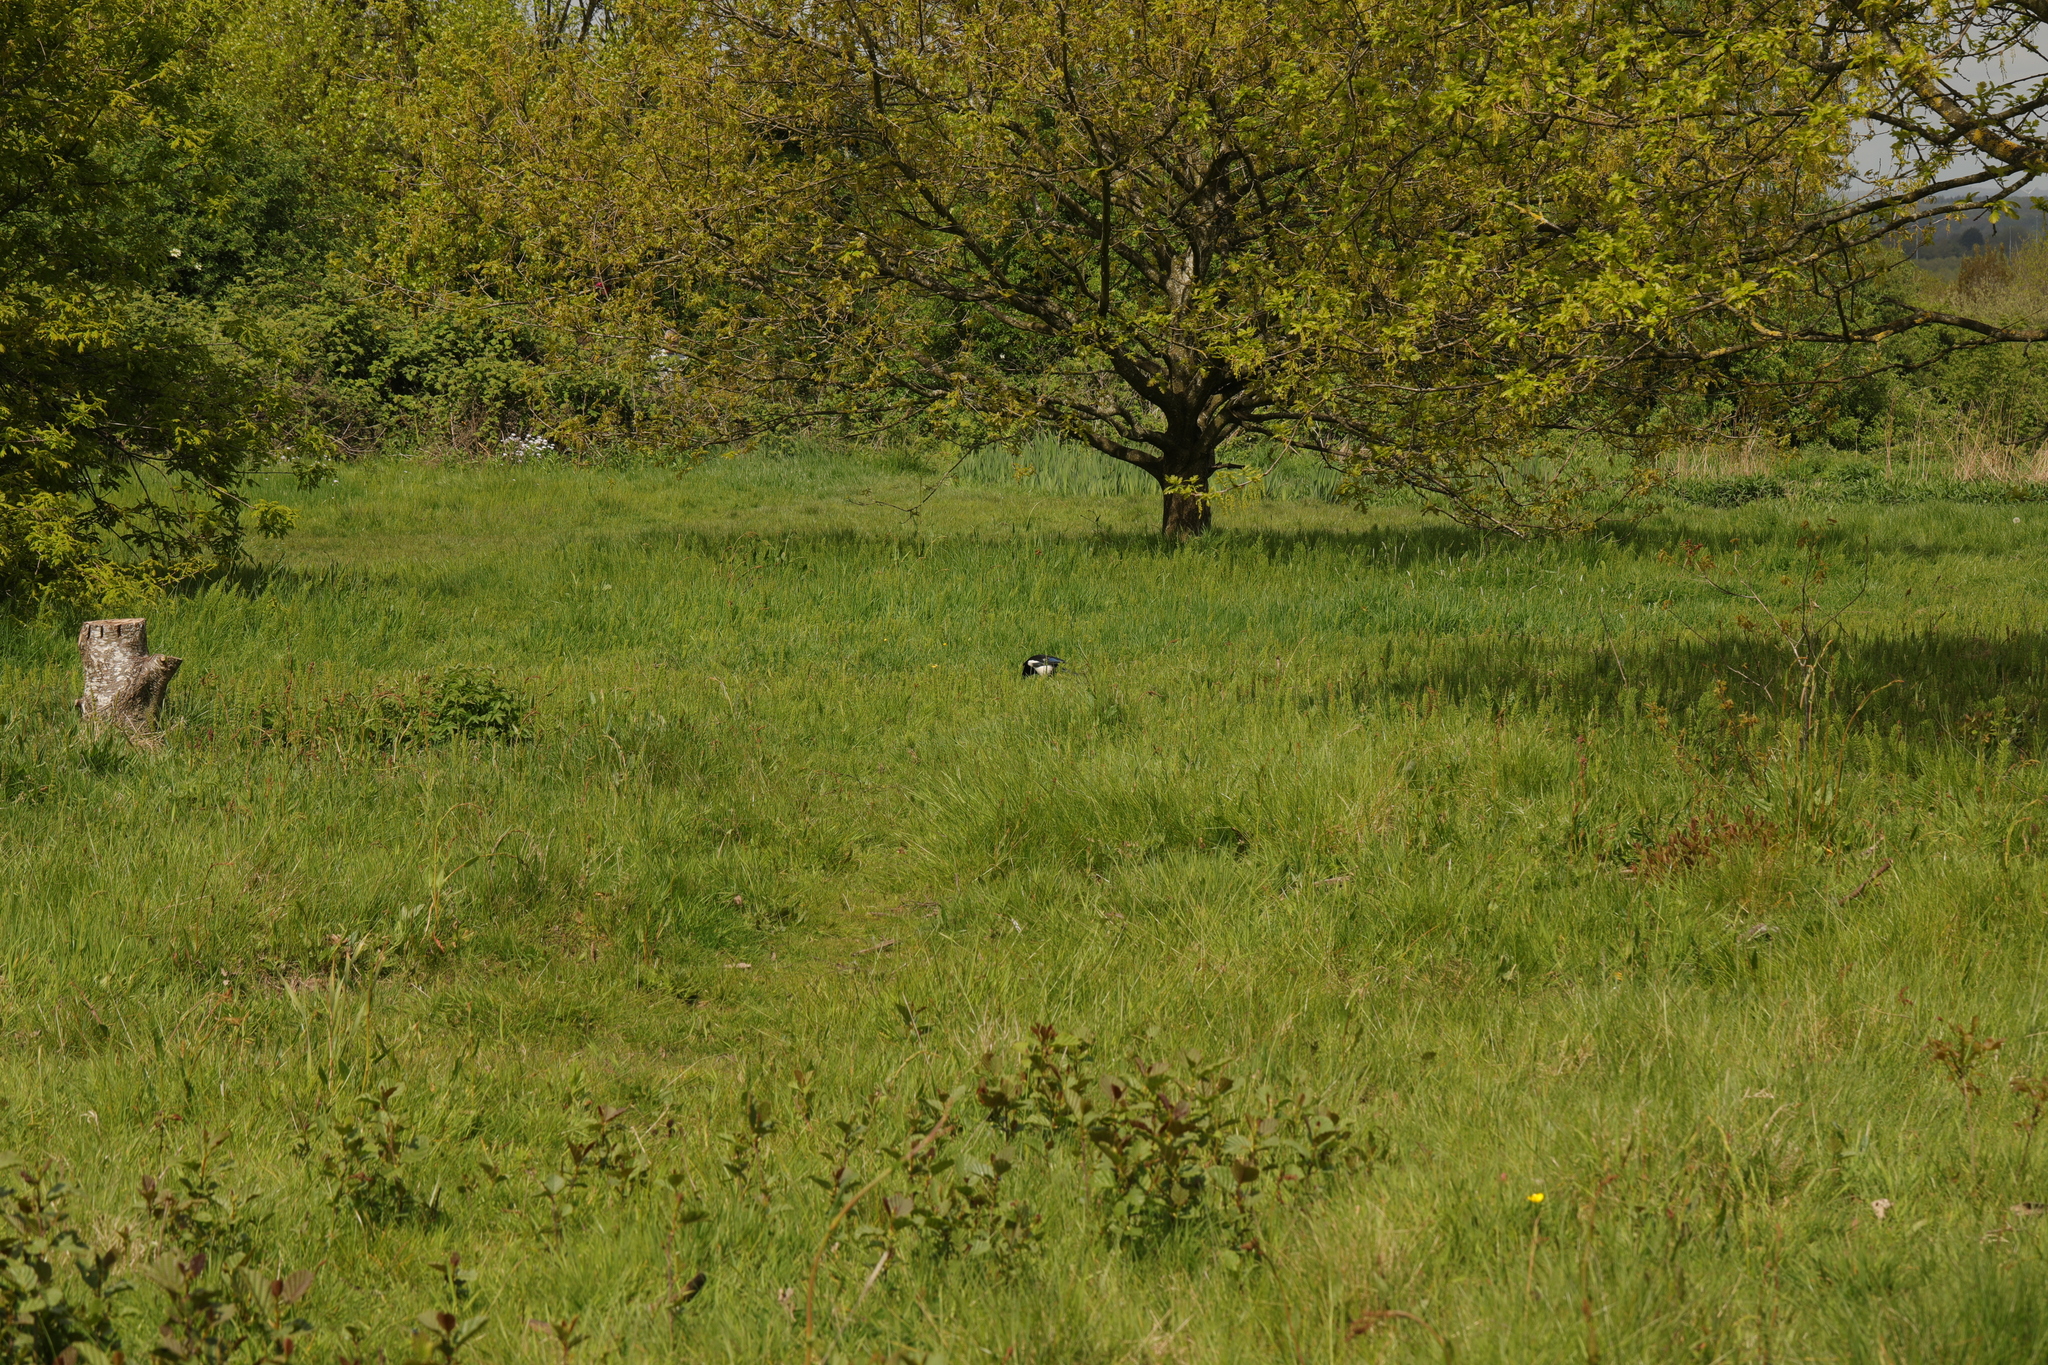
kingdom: Animalia
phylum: Chordata
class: Aves
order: Passeriformes
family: Corvidae
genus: Pica
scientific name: Pica pica
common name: Eurasian magpie
